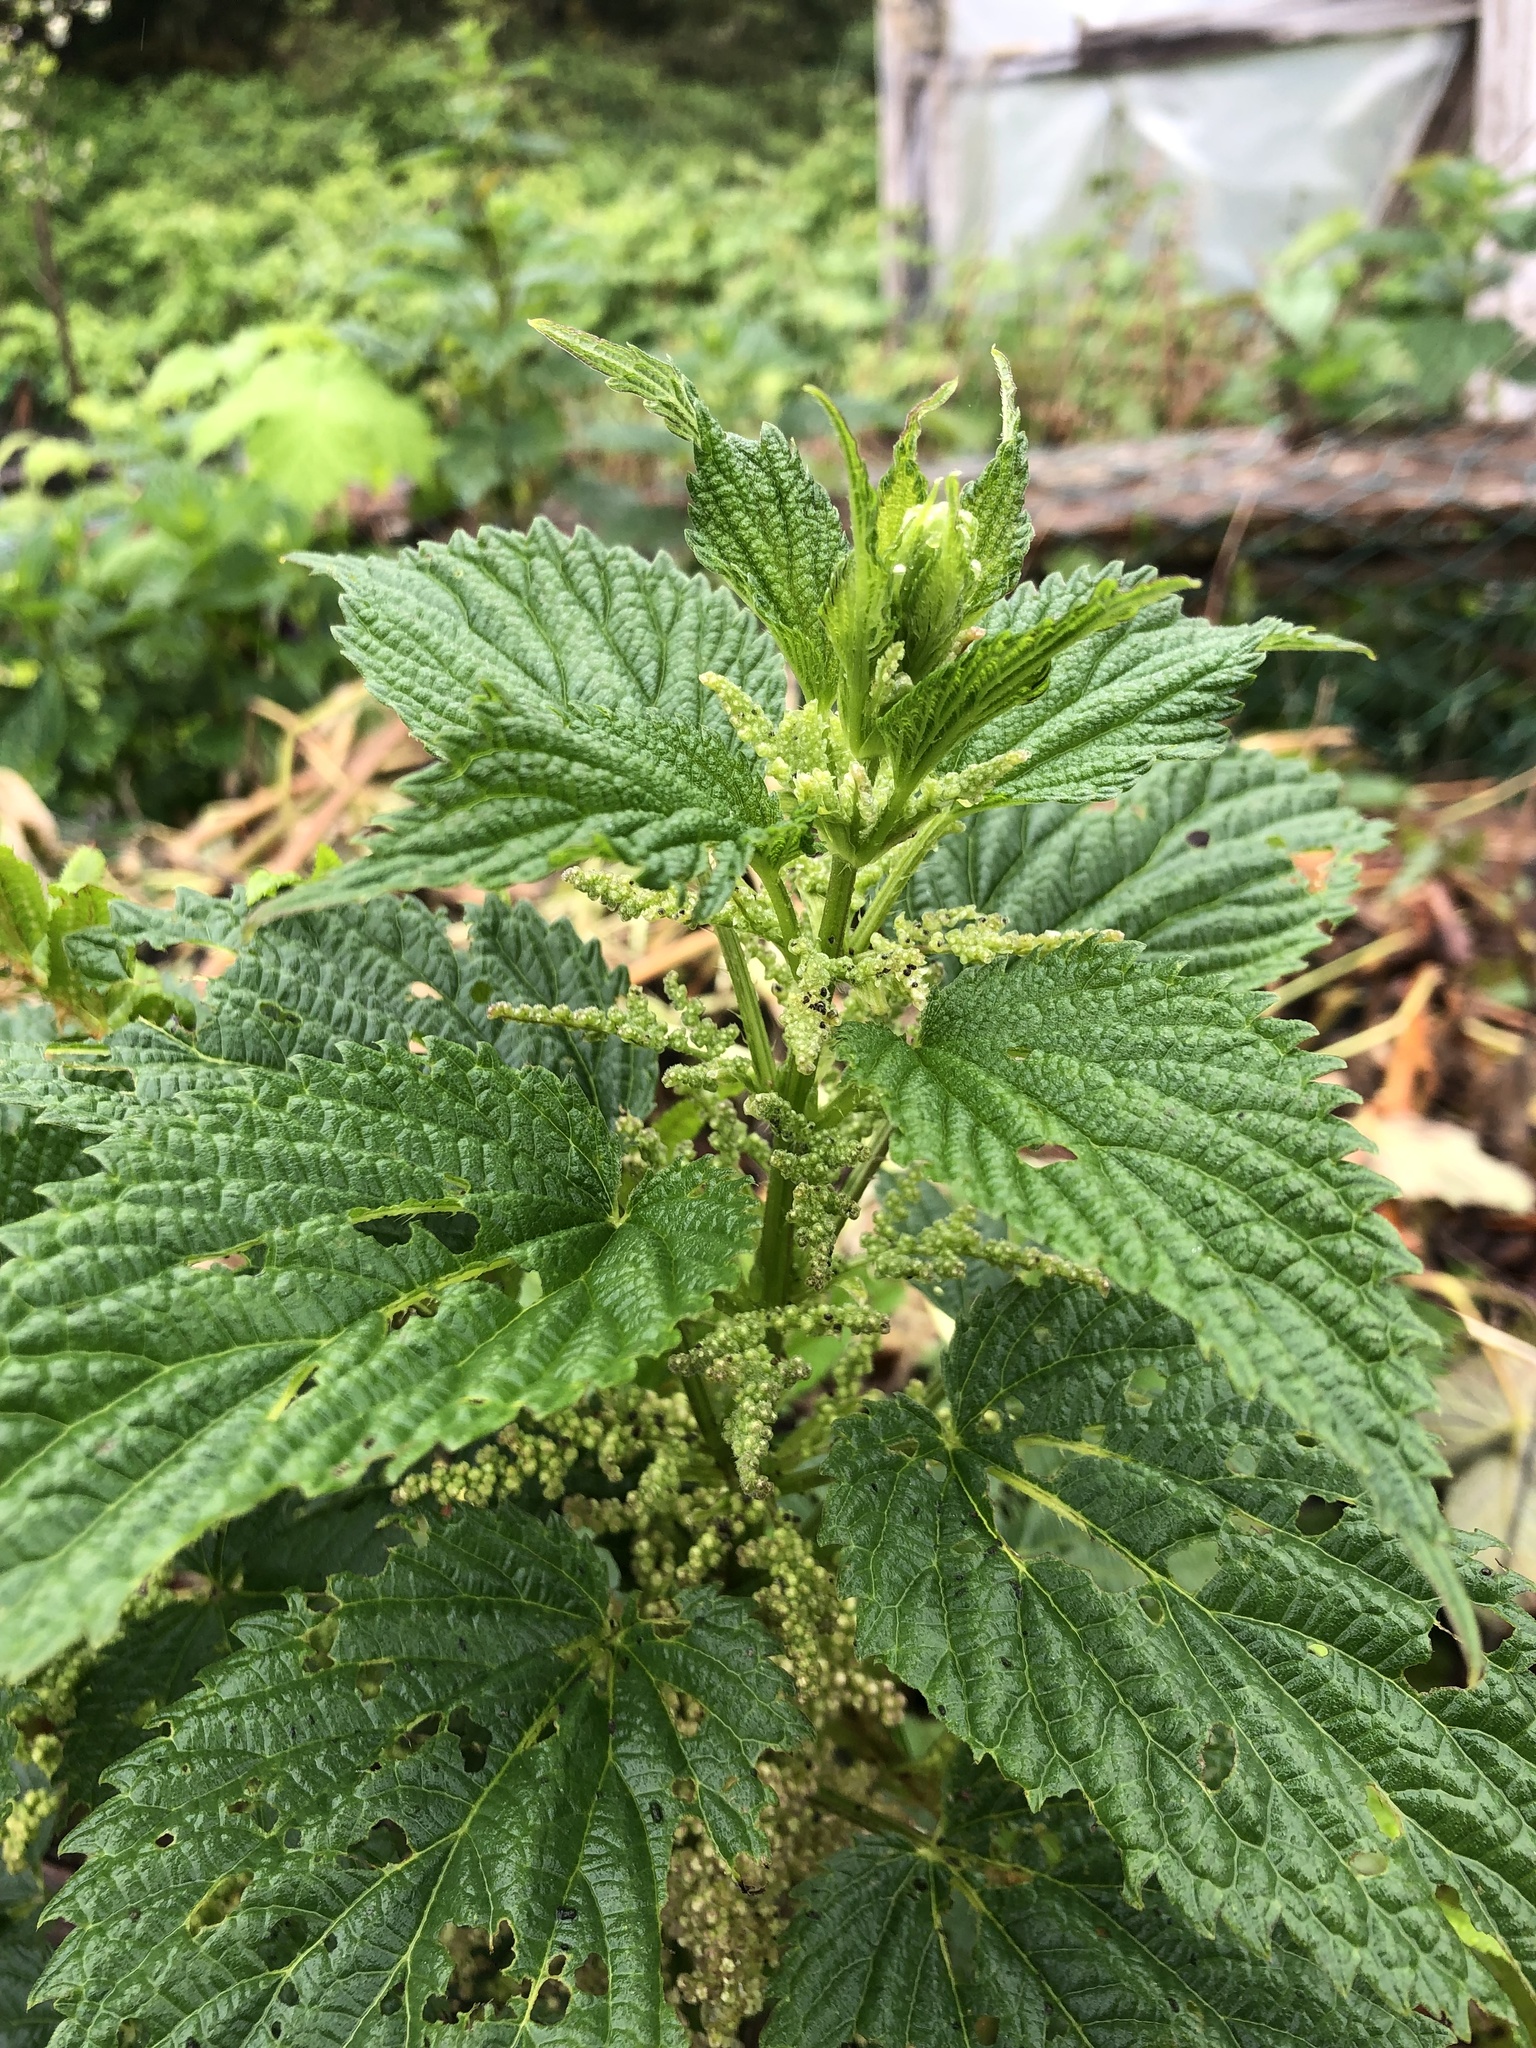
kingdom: Plantae
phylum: Tracheophyta
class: Magnoliopsida
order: Rosales
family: Urticaceae
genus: Urtica
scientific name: Urtica dioica
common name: Common nettle
